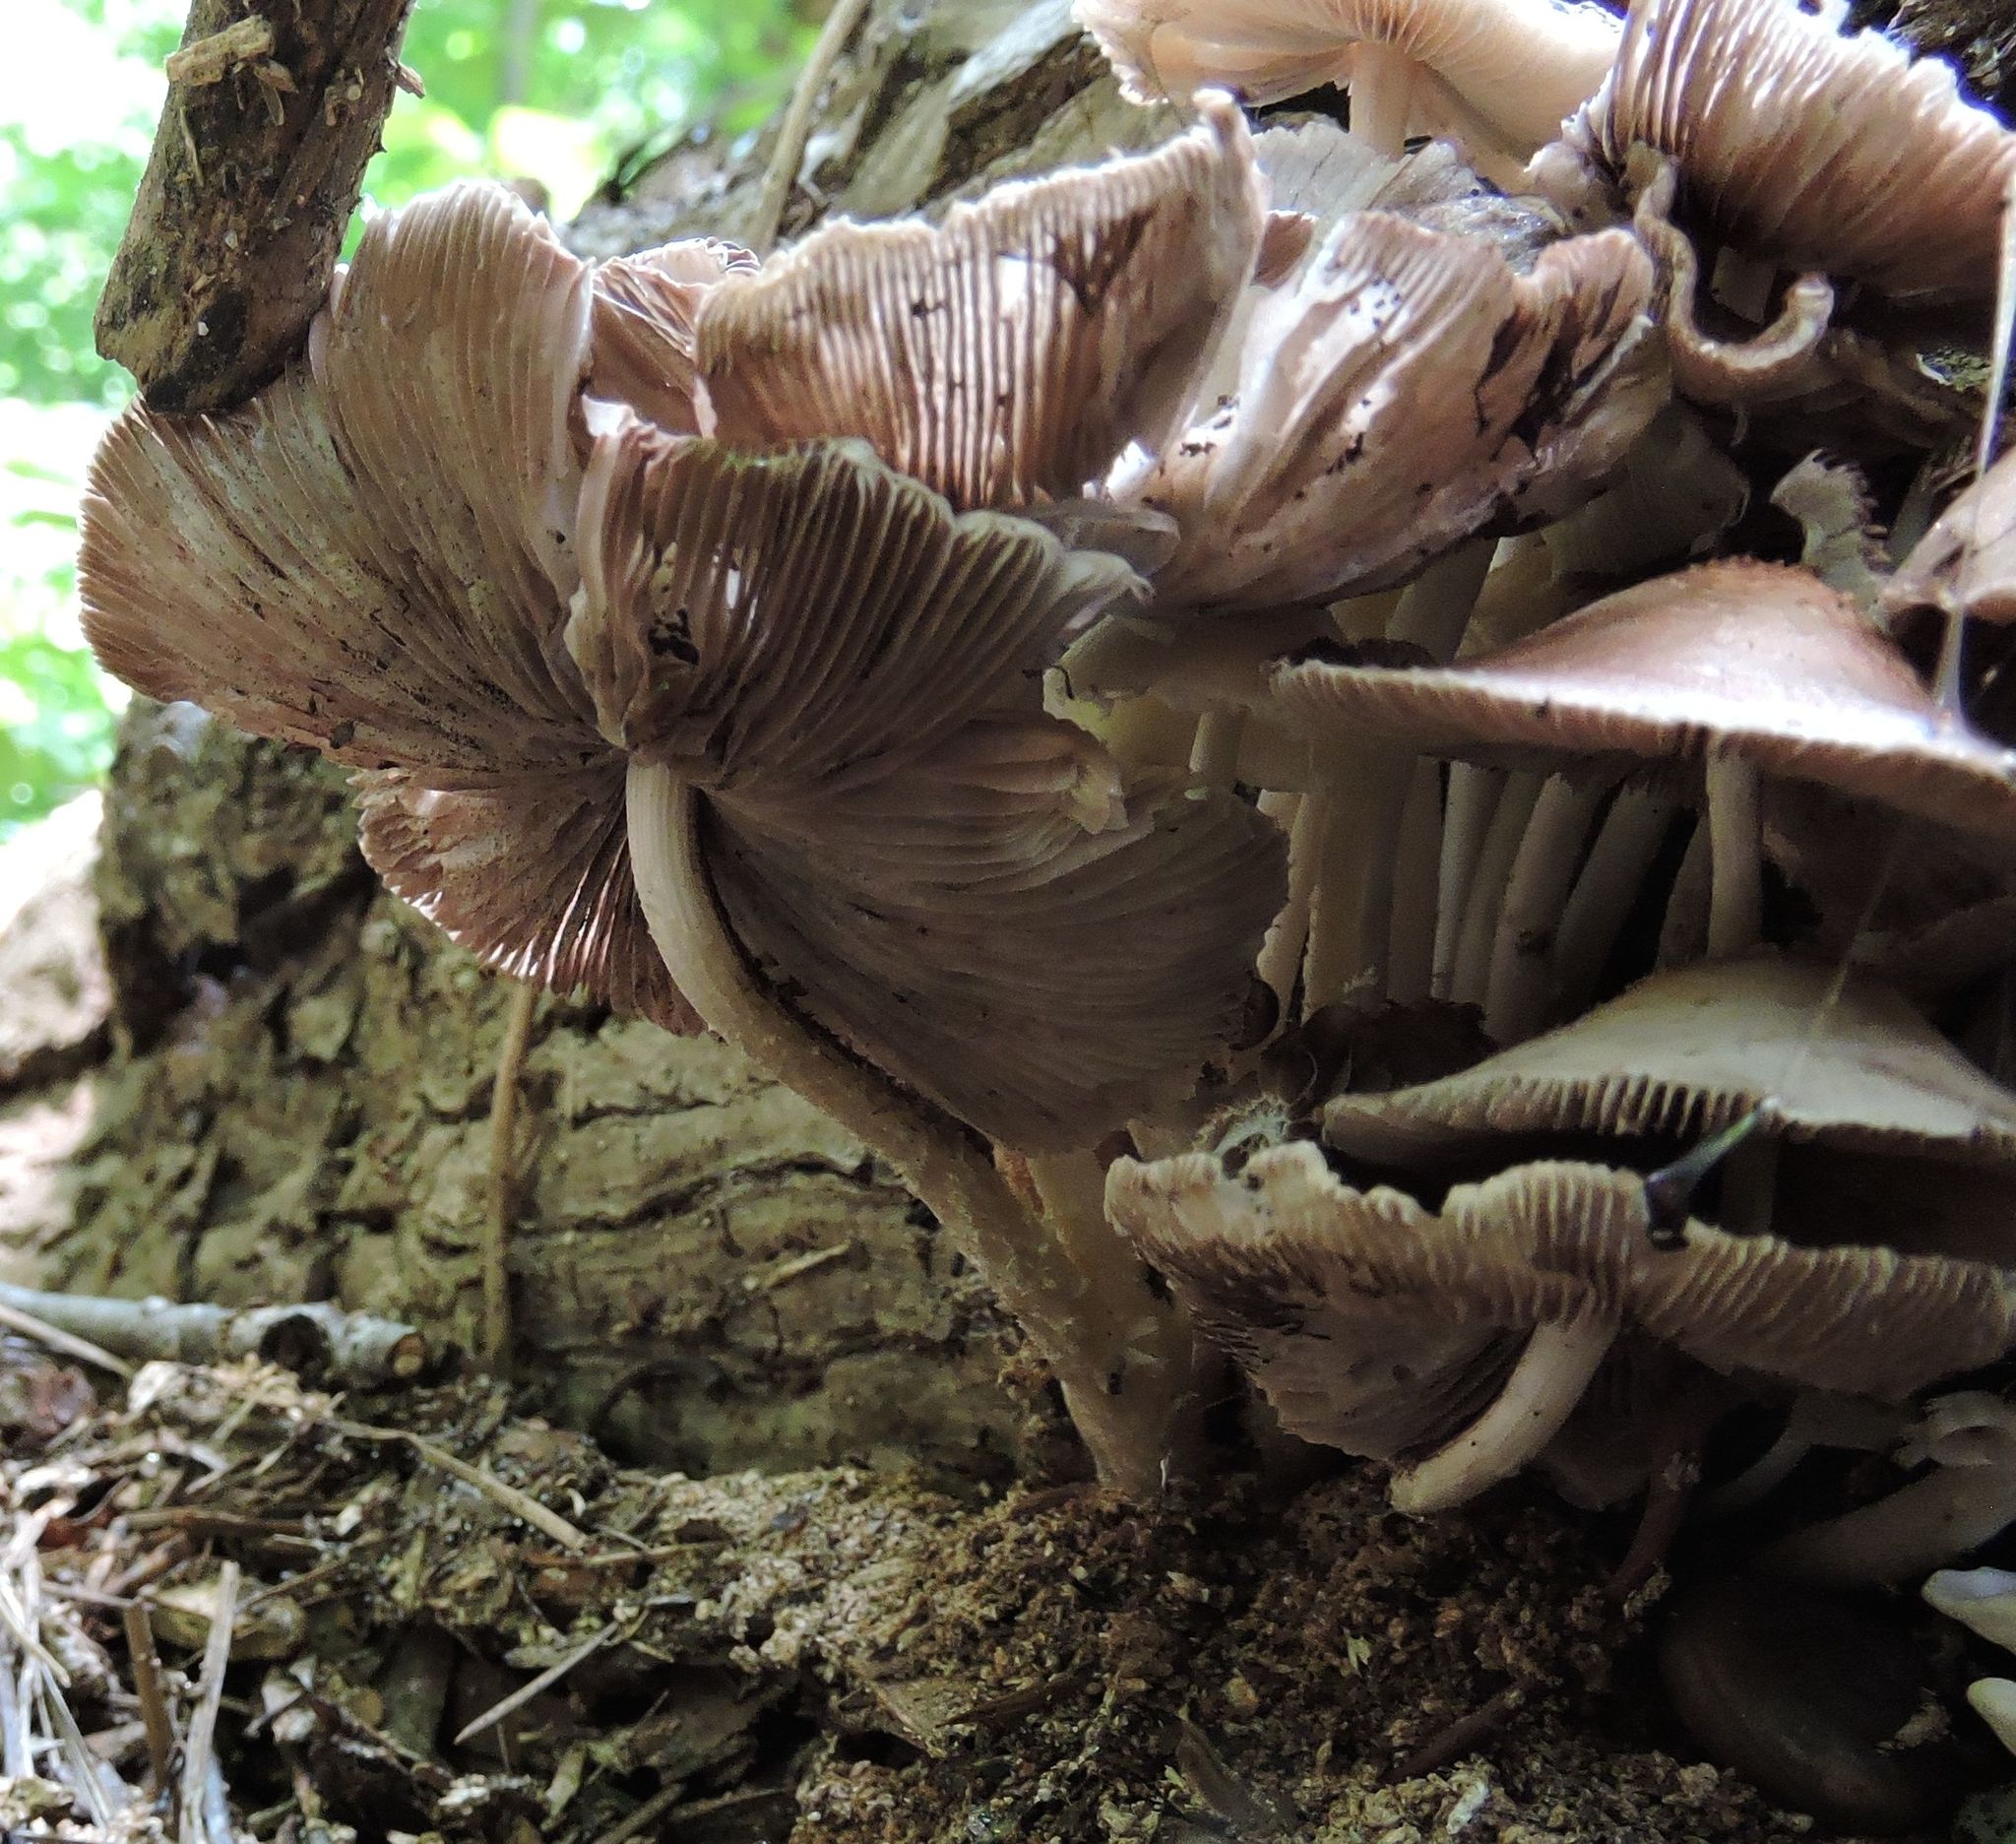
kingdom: Fungi
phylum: Basidiomycota
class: Agaricomycetes
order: Agaricales
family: Psathyrellaceae
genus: Candolleomyces
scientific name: Candolleomyces candolleanus
